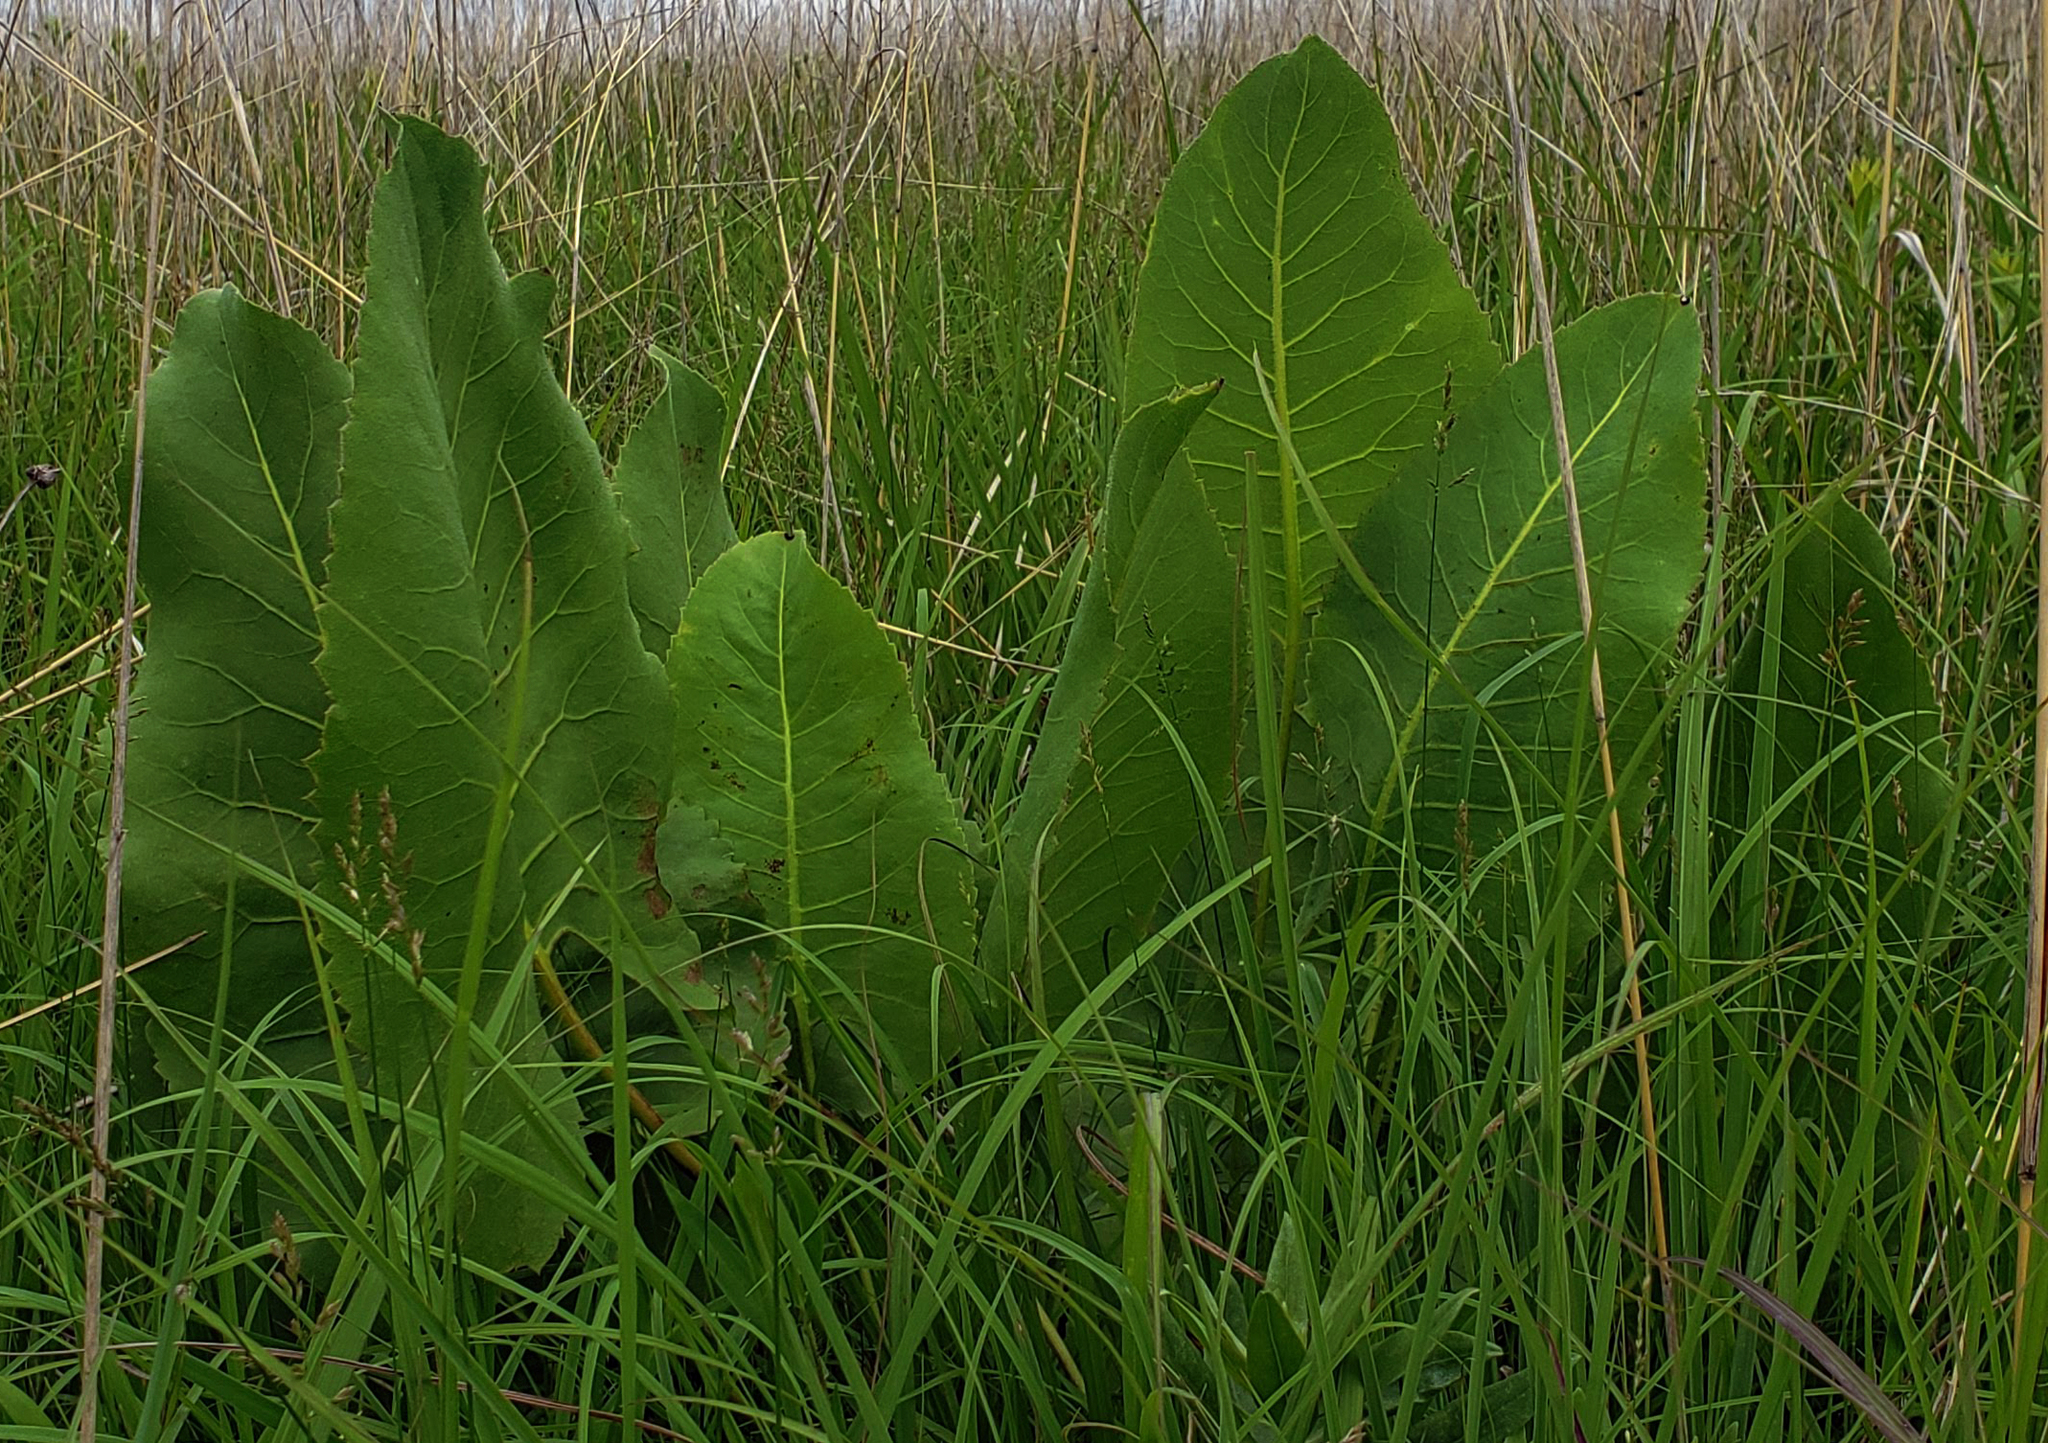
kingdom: Plantae
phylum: Tracheophyta
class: Magnoliopsida
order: Asterales
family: Asteraceae
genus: Silphium
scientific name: Silphium terebinthinaceum
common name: Basal-leaf rosinweed
